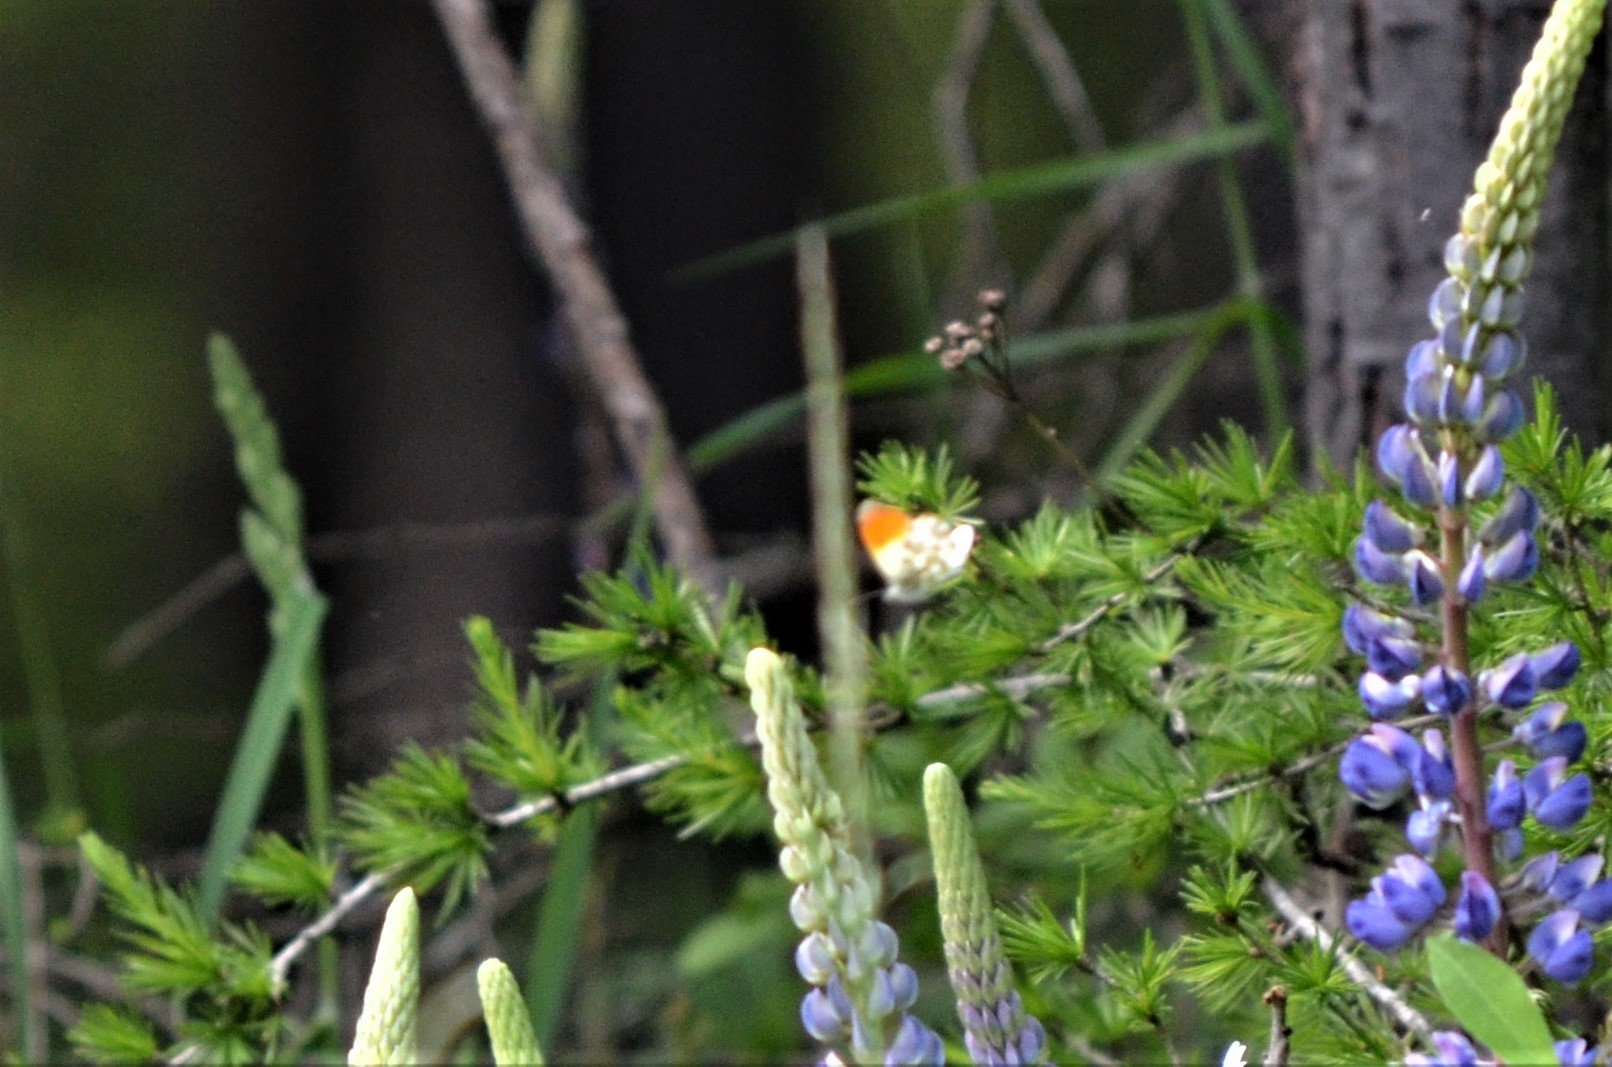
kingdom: Animalia
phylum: Arthropoda
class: Insecta
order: Lepidoptera
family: Pieridae
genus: Anthocharis
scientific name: Anthocharis cardamines
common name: Orange-tip
